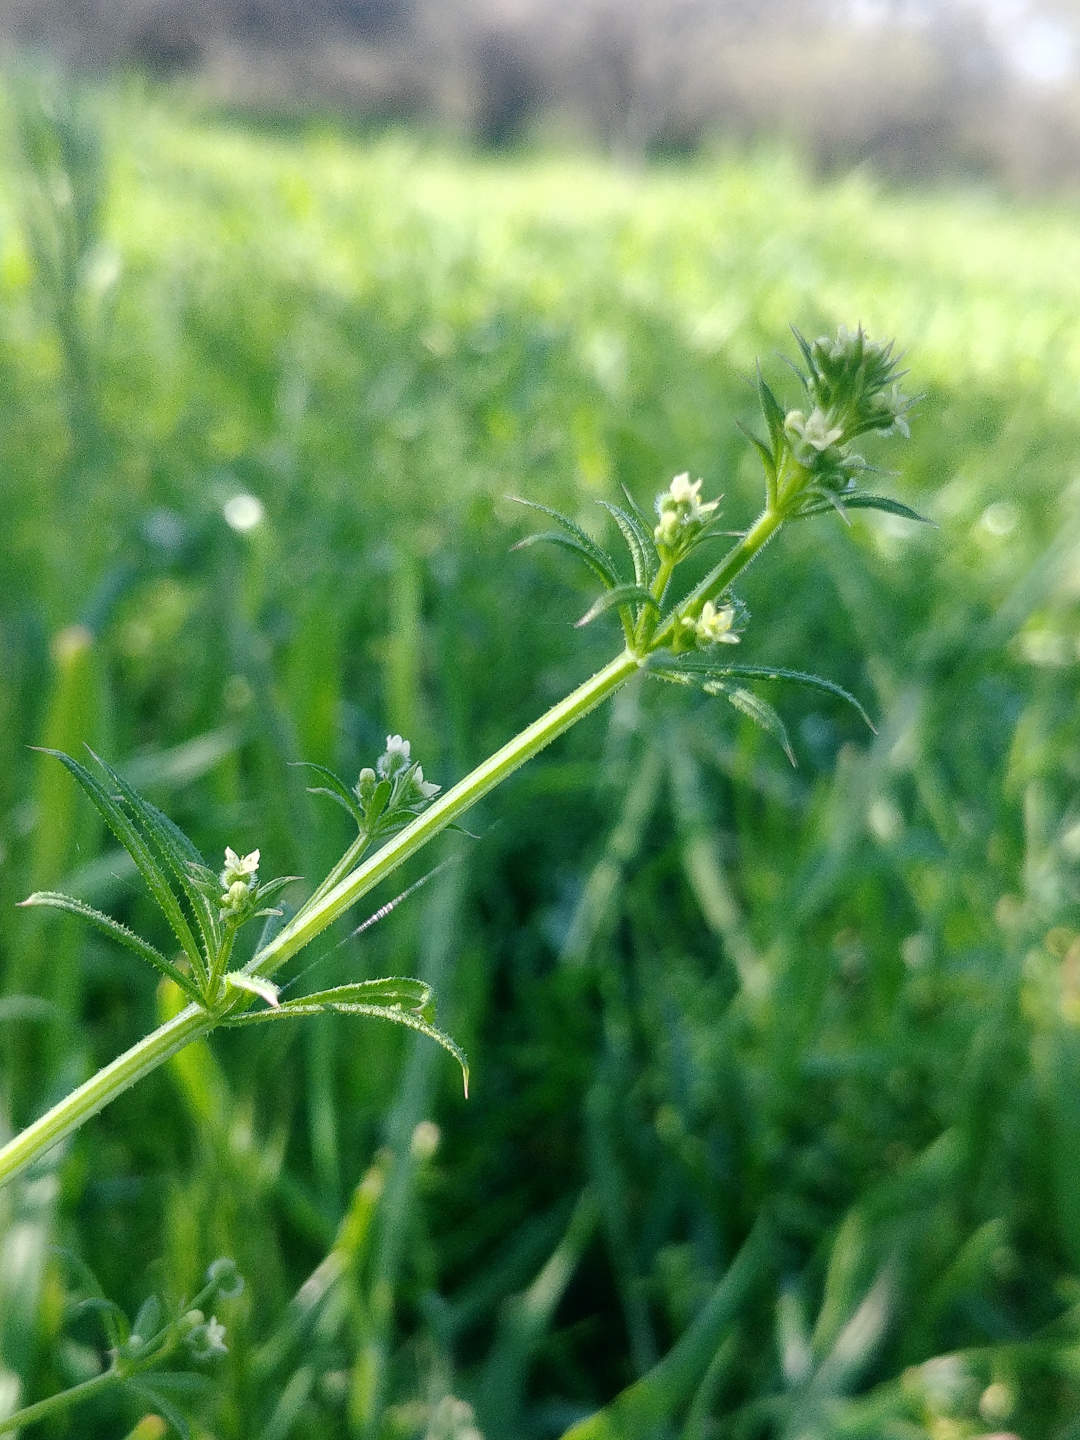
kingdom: Plantae
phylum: Tracheophyta
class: Magnoliopsida
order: Gentianales
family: Rubiaceae
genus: Galium
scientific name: Galium aparine
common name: Cleavers
